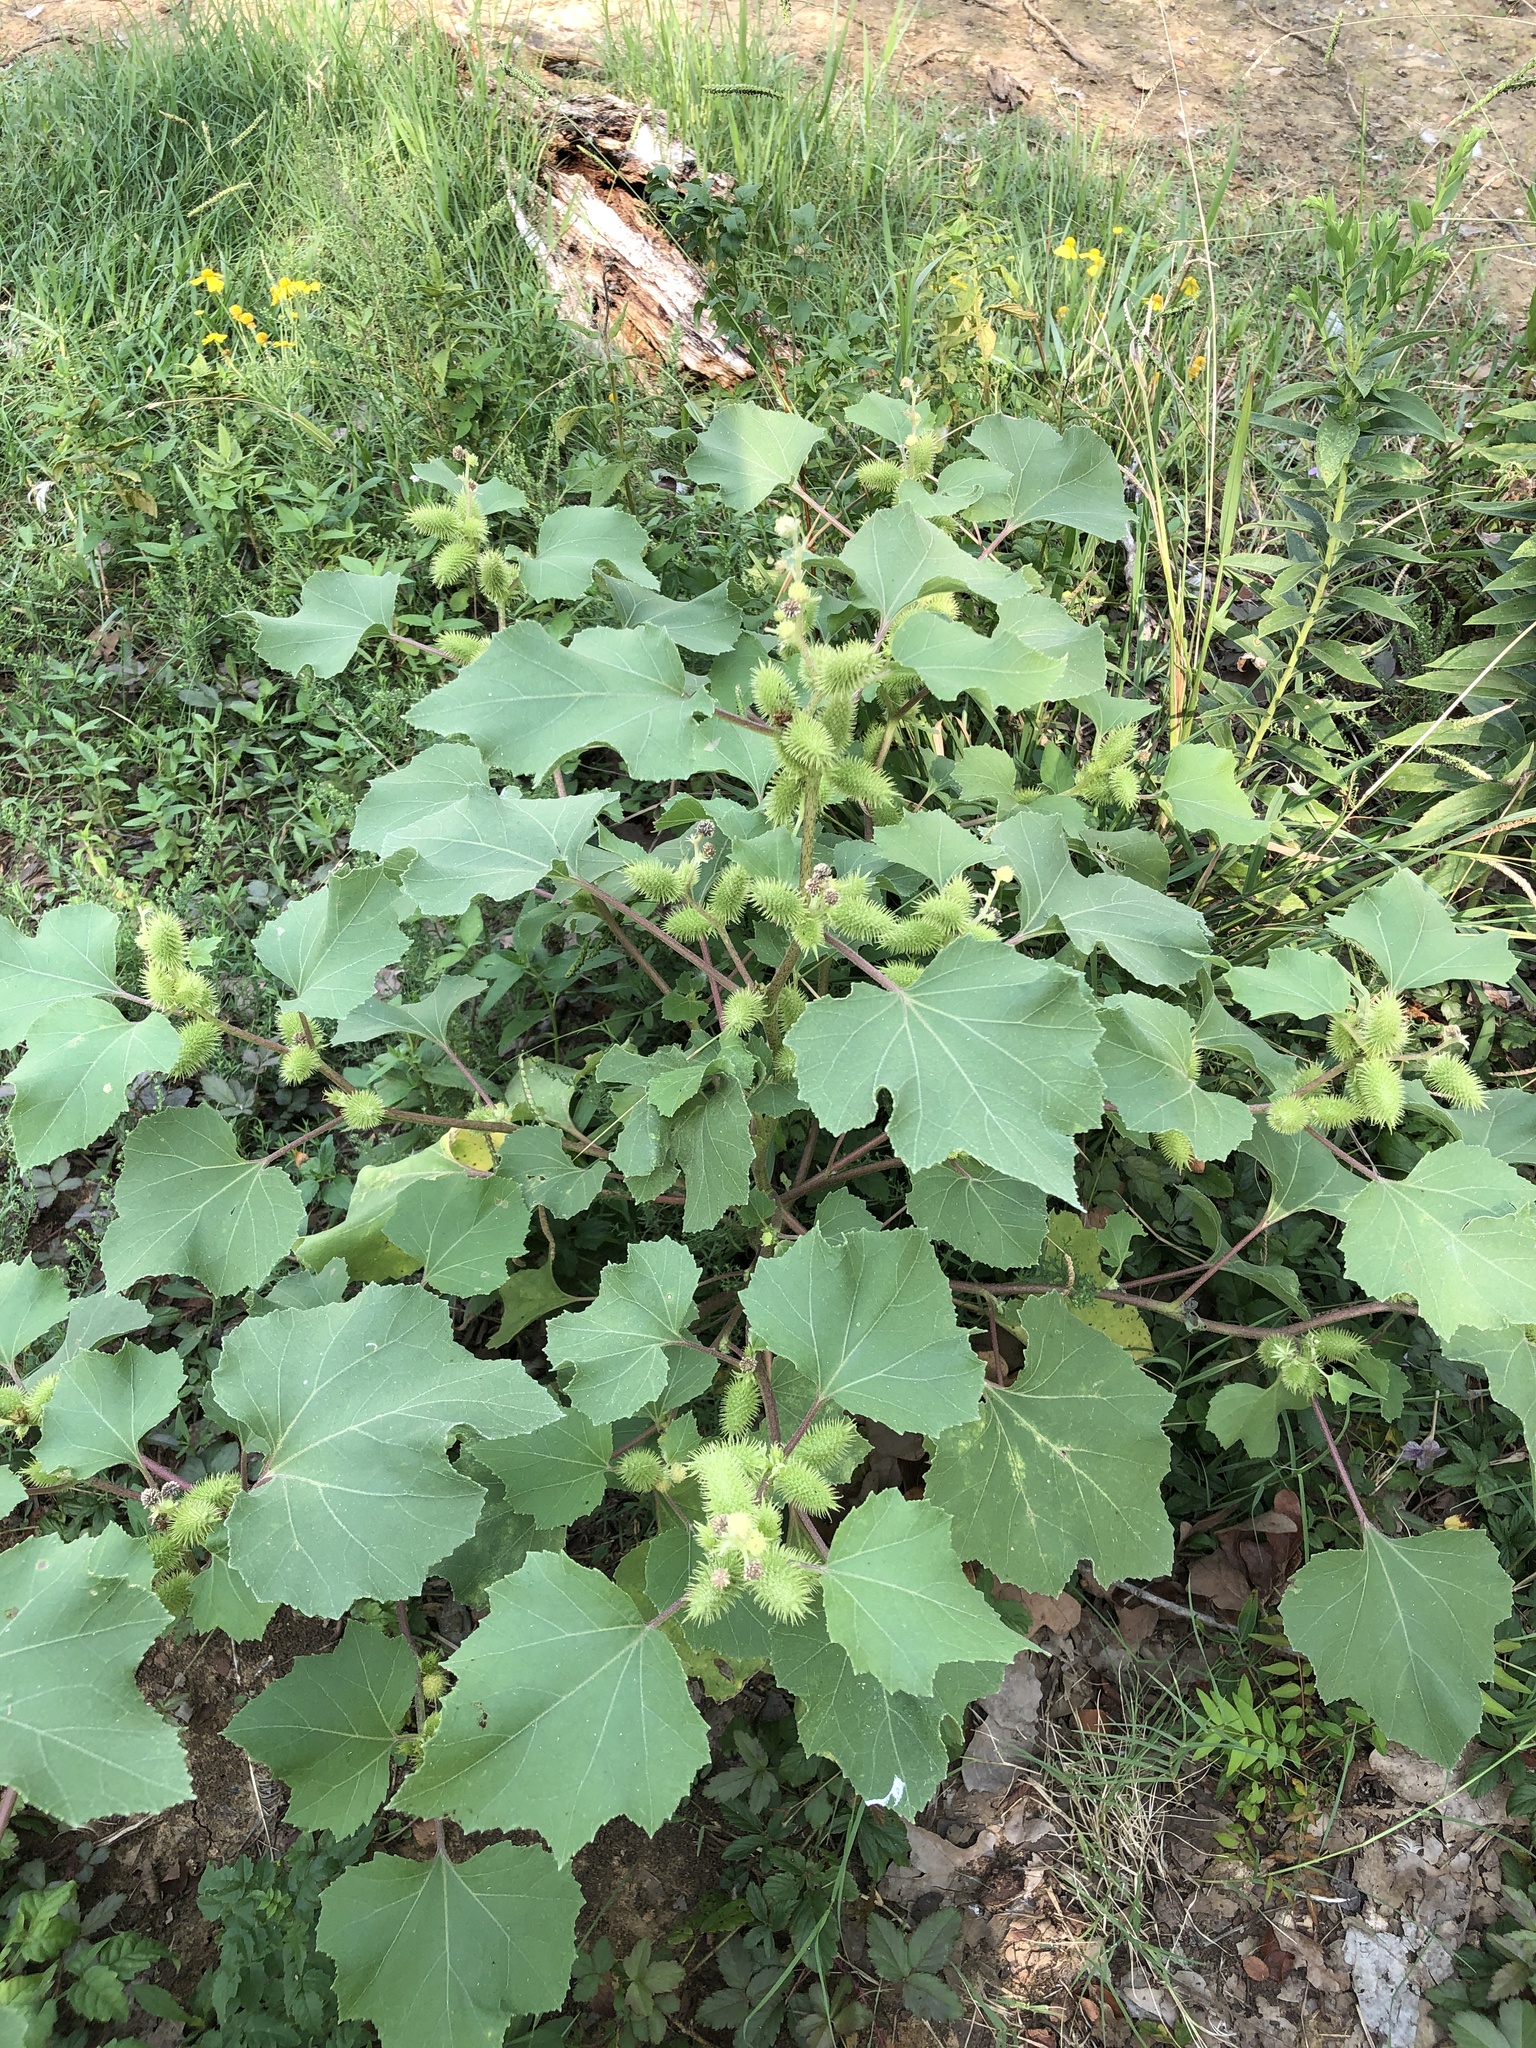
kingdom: Plantae
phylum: Tracheophyta
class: Magnoliopsida
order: Asterales
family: Asteraceae
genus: Xanthium
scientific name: Xanthium strumarium
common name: Rough cocklebur
